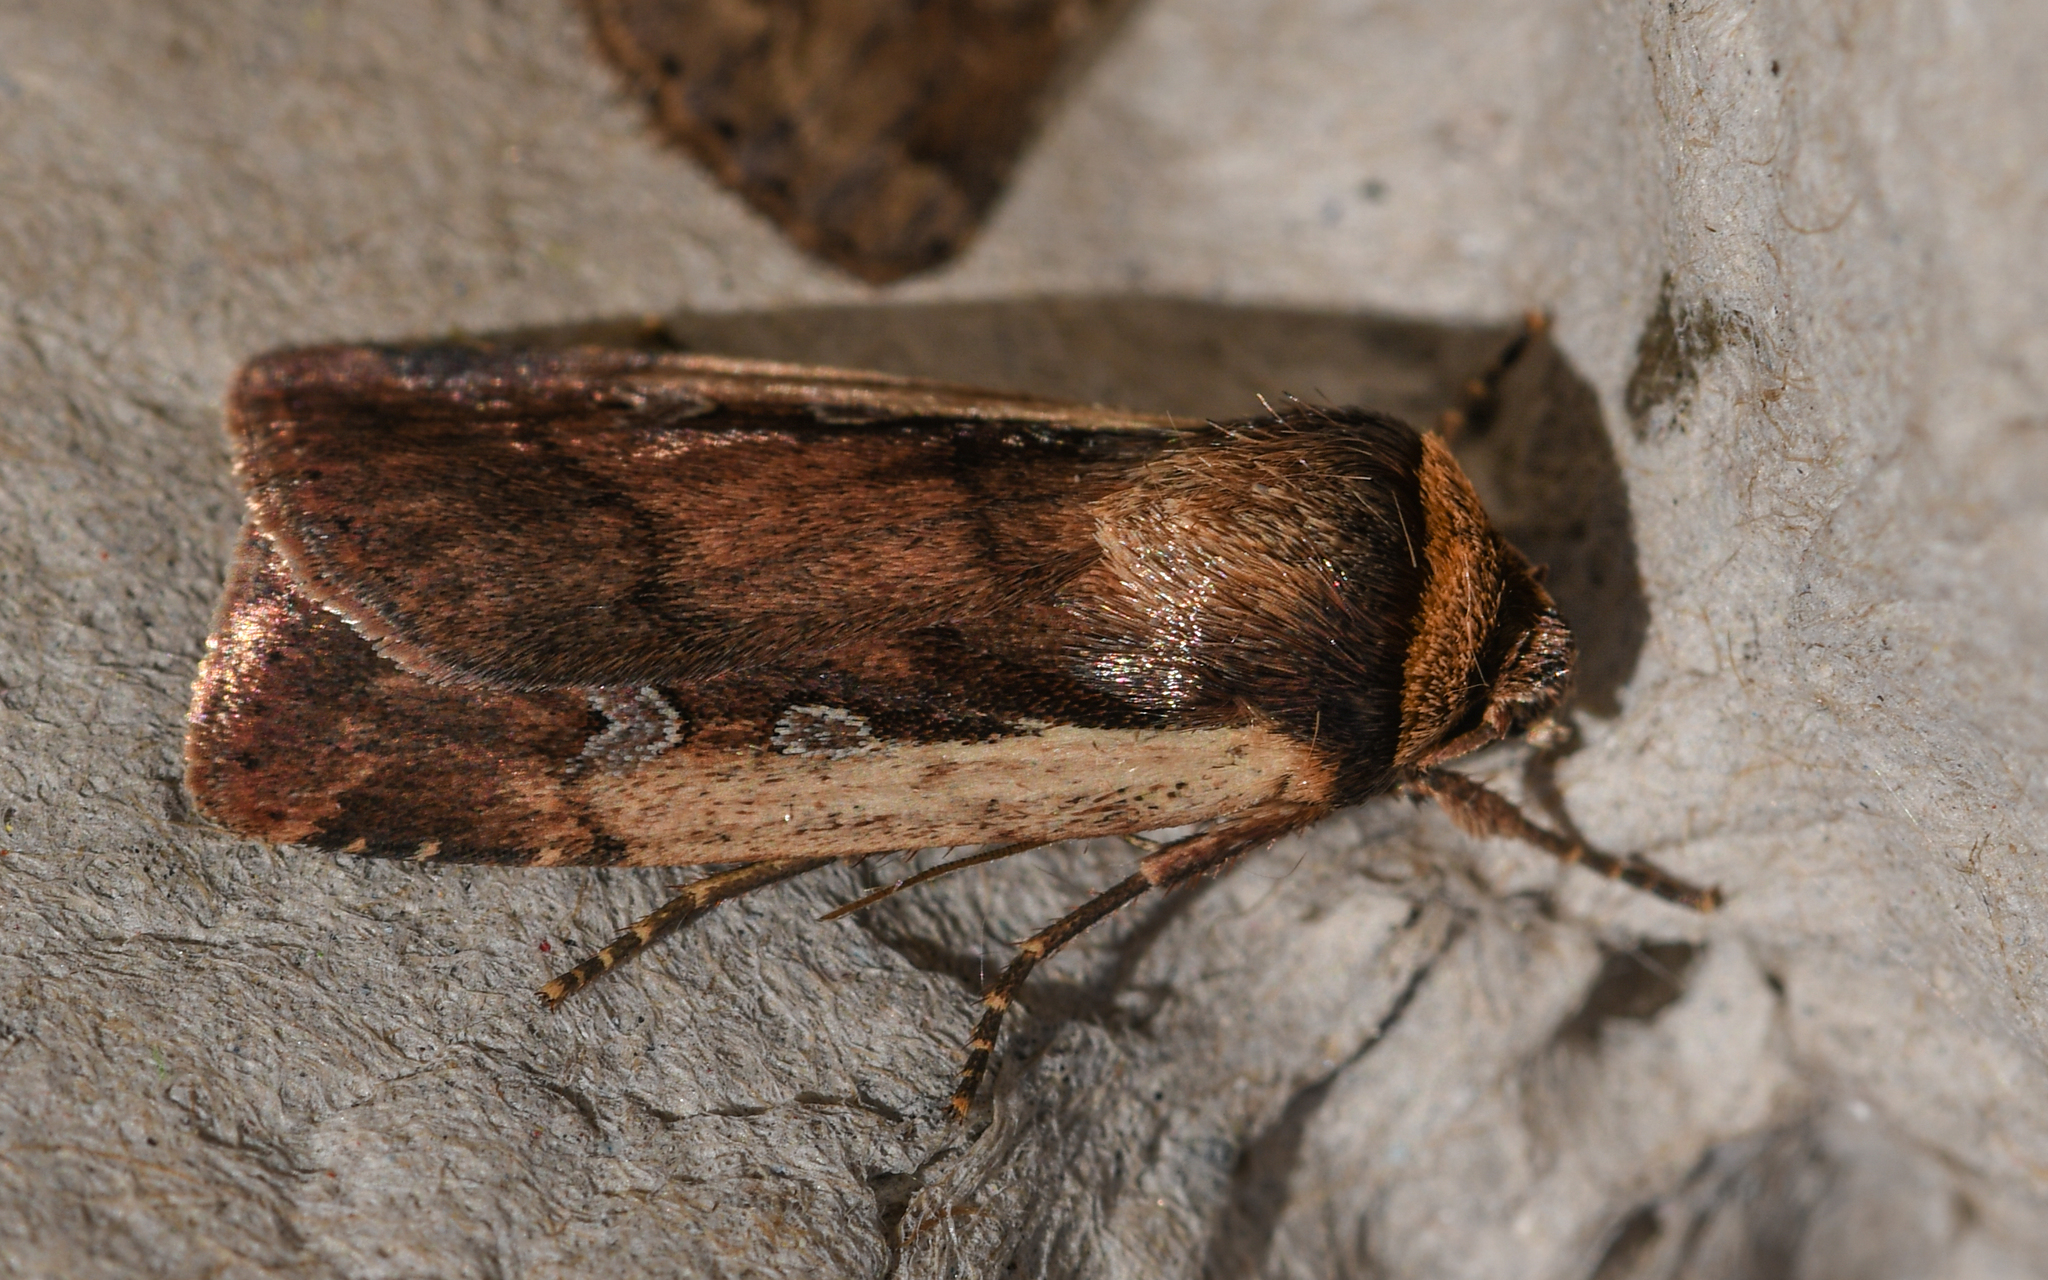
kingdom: Animalia
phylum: Arthropoda
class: Insecta
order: Lepidoptera
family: Noctuidae
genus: Ochropleura
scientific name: Ochropleura plecta
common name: Flame shoulder
